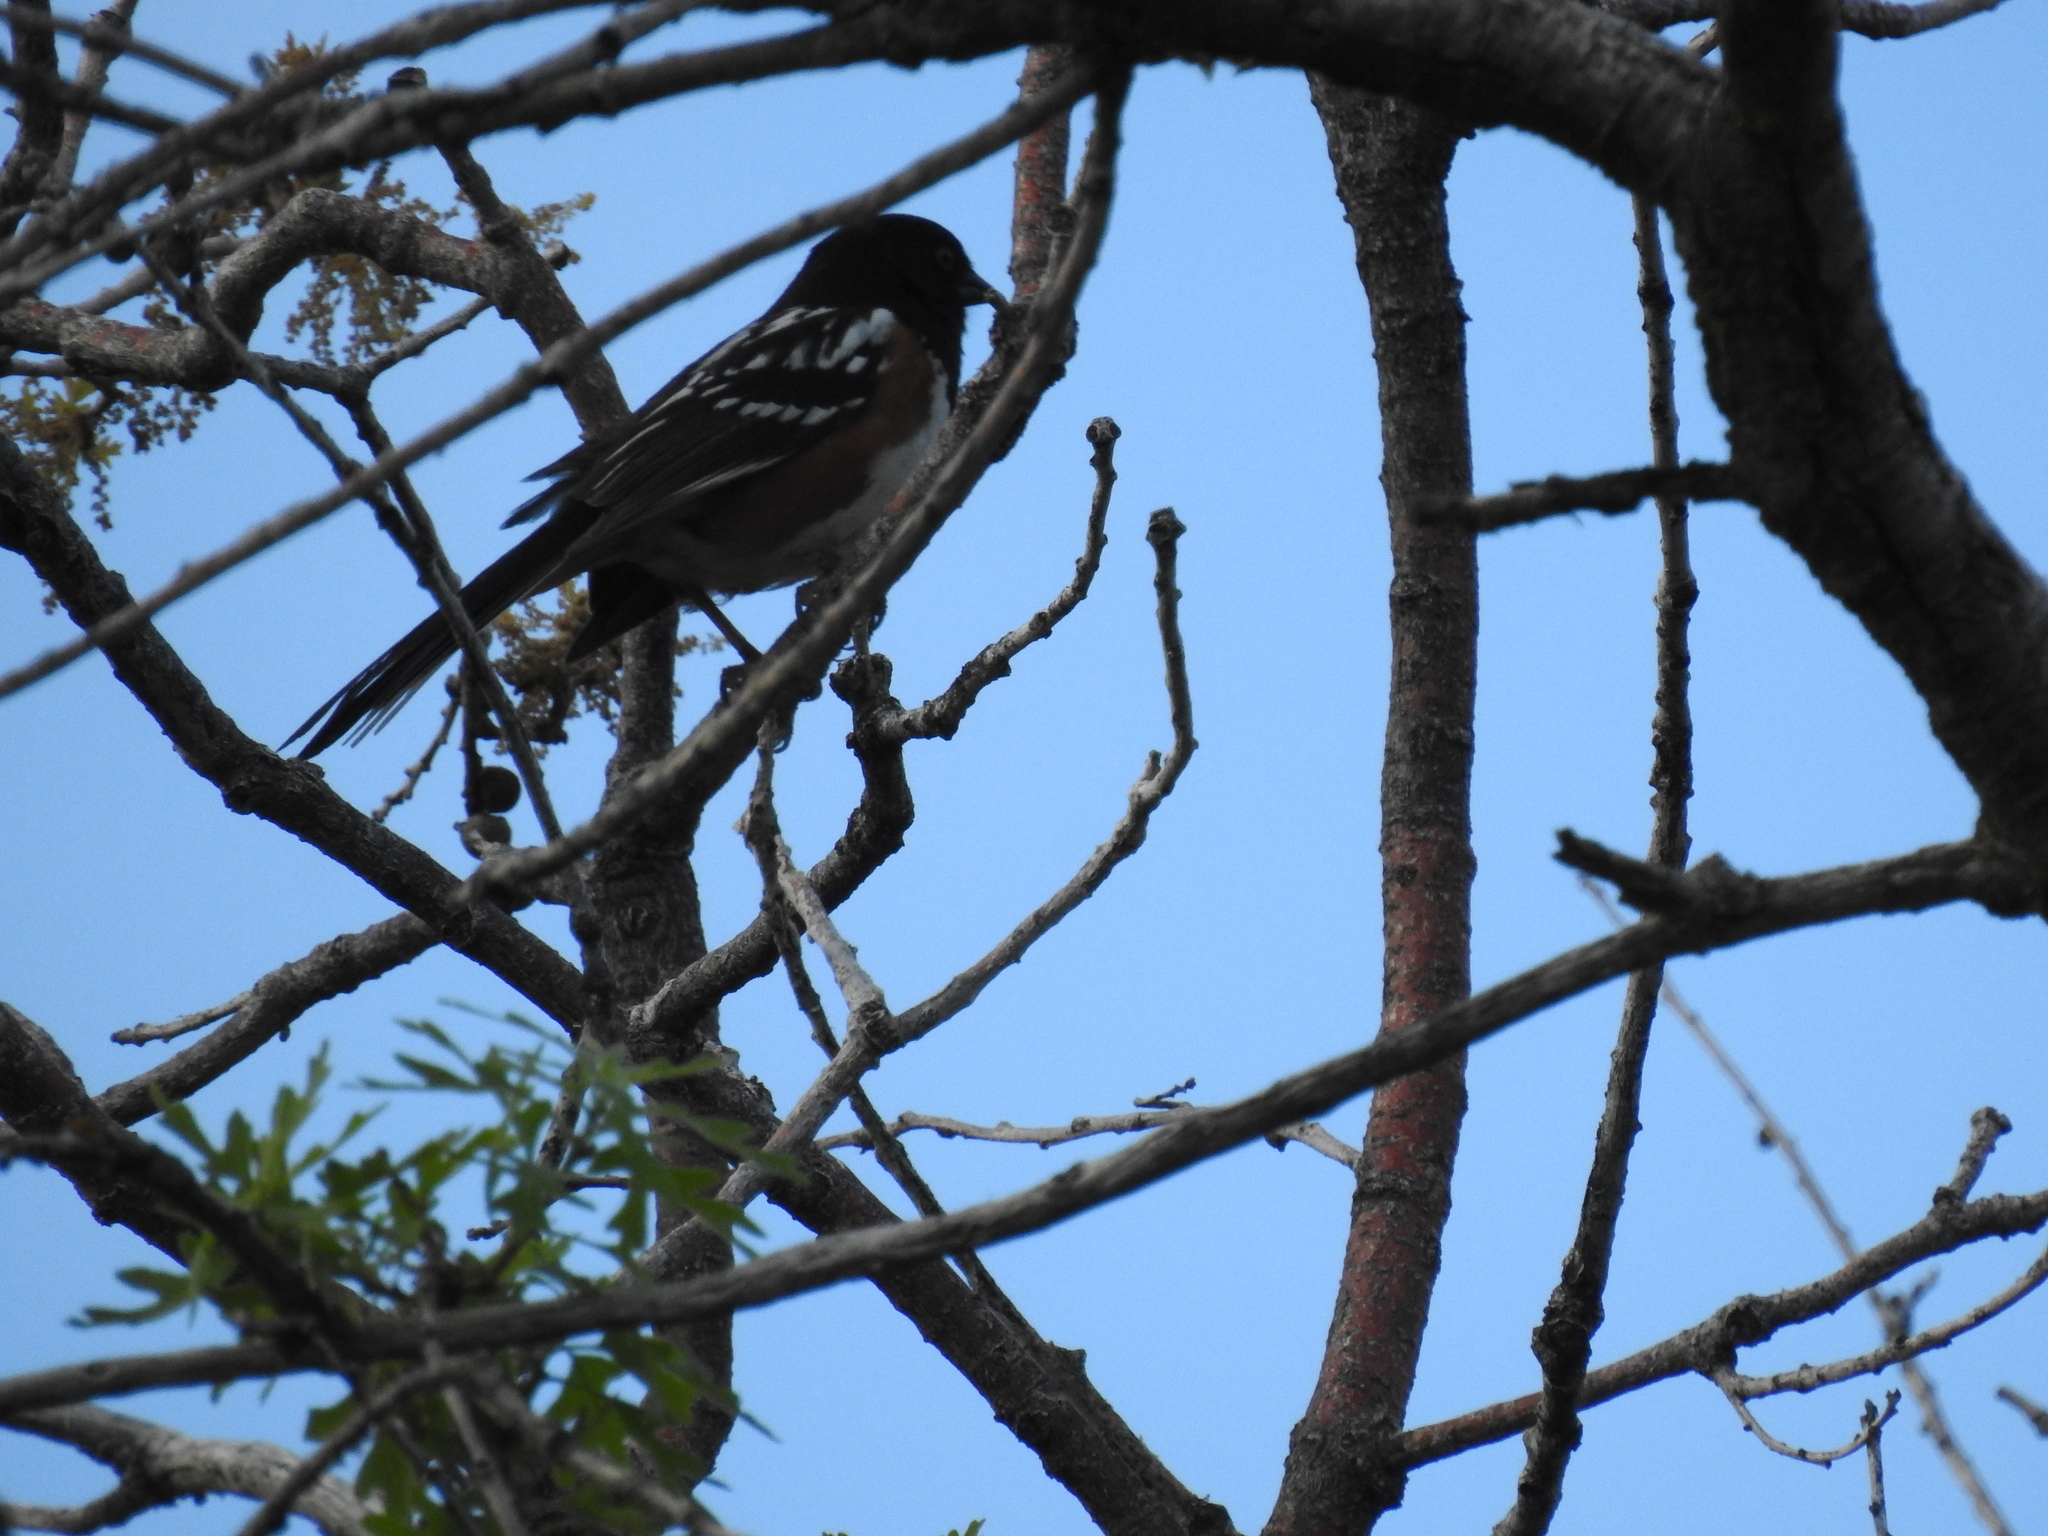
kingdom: Animalia
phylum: Chordata
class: Aves
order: Passeriformes
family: Passerellidae
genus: Pipilo
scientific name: Pipilo maculatus
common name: Spotted towhee
